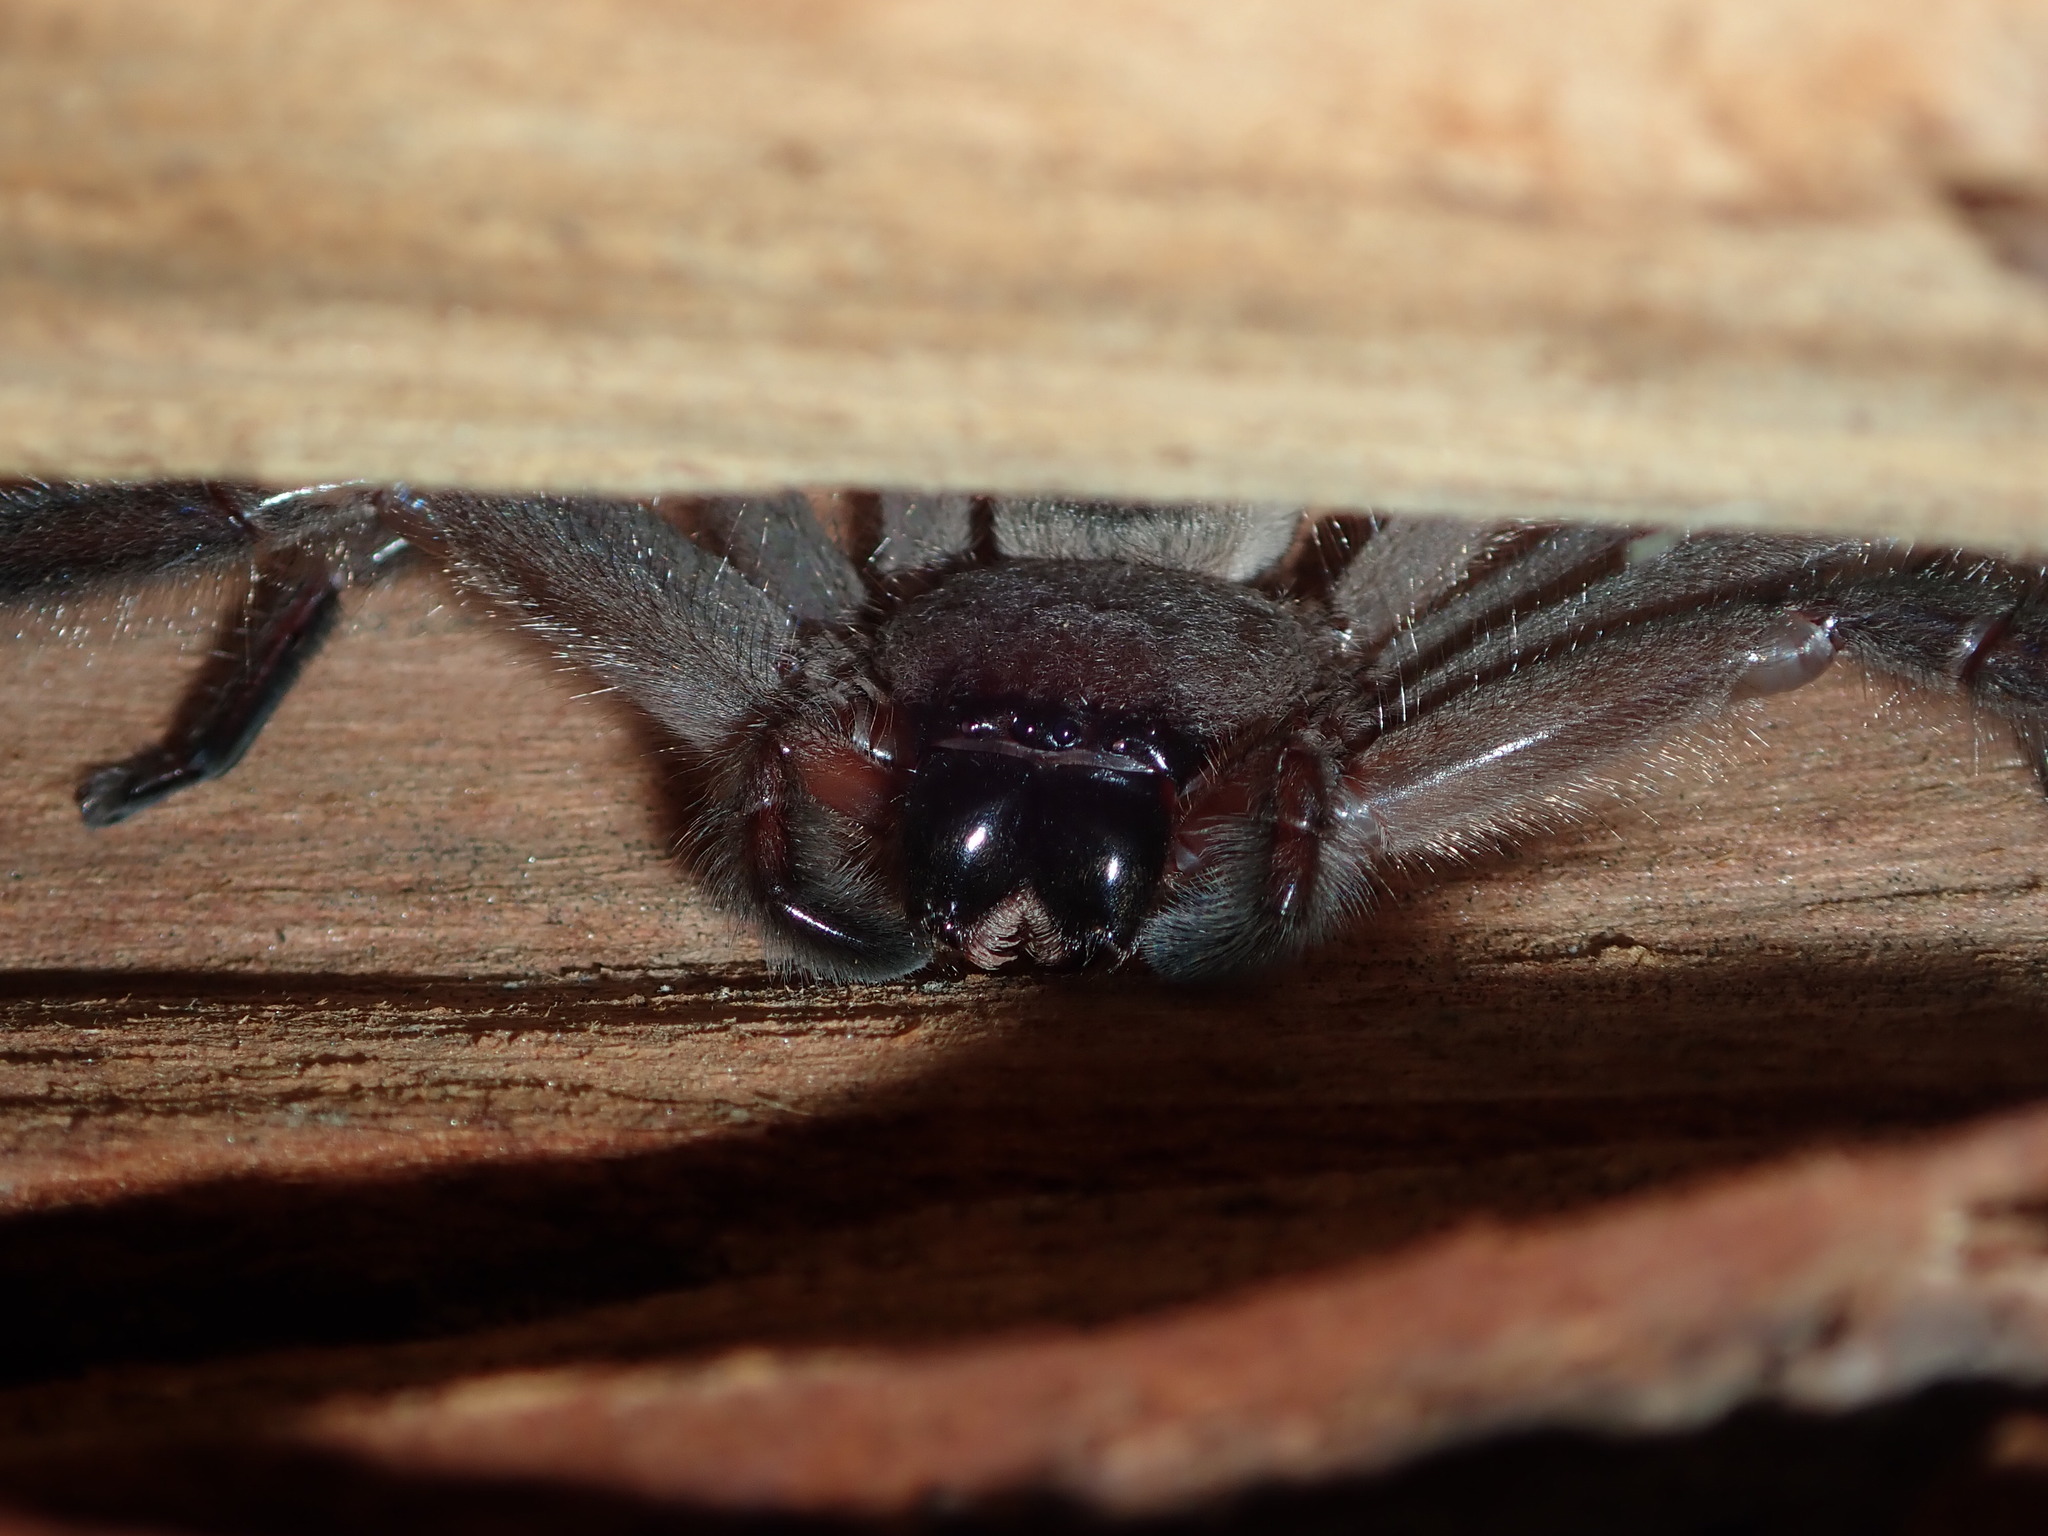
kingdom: Animalia
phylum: Arthropoda
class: Arachnida
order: Araneae
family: Sparassidae
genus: Delena
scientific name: Delena cancerides
